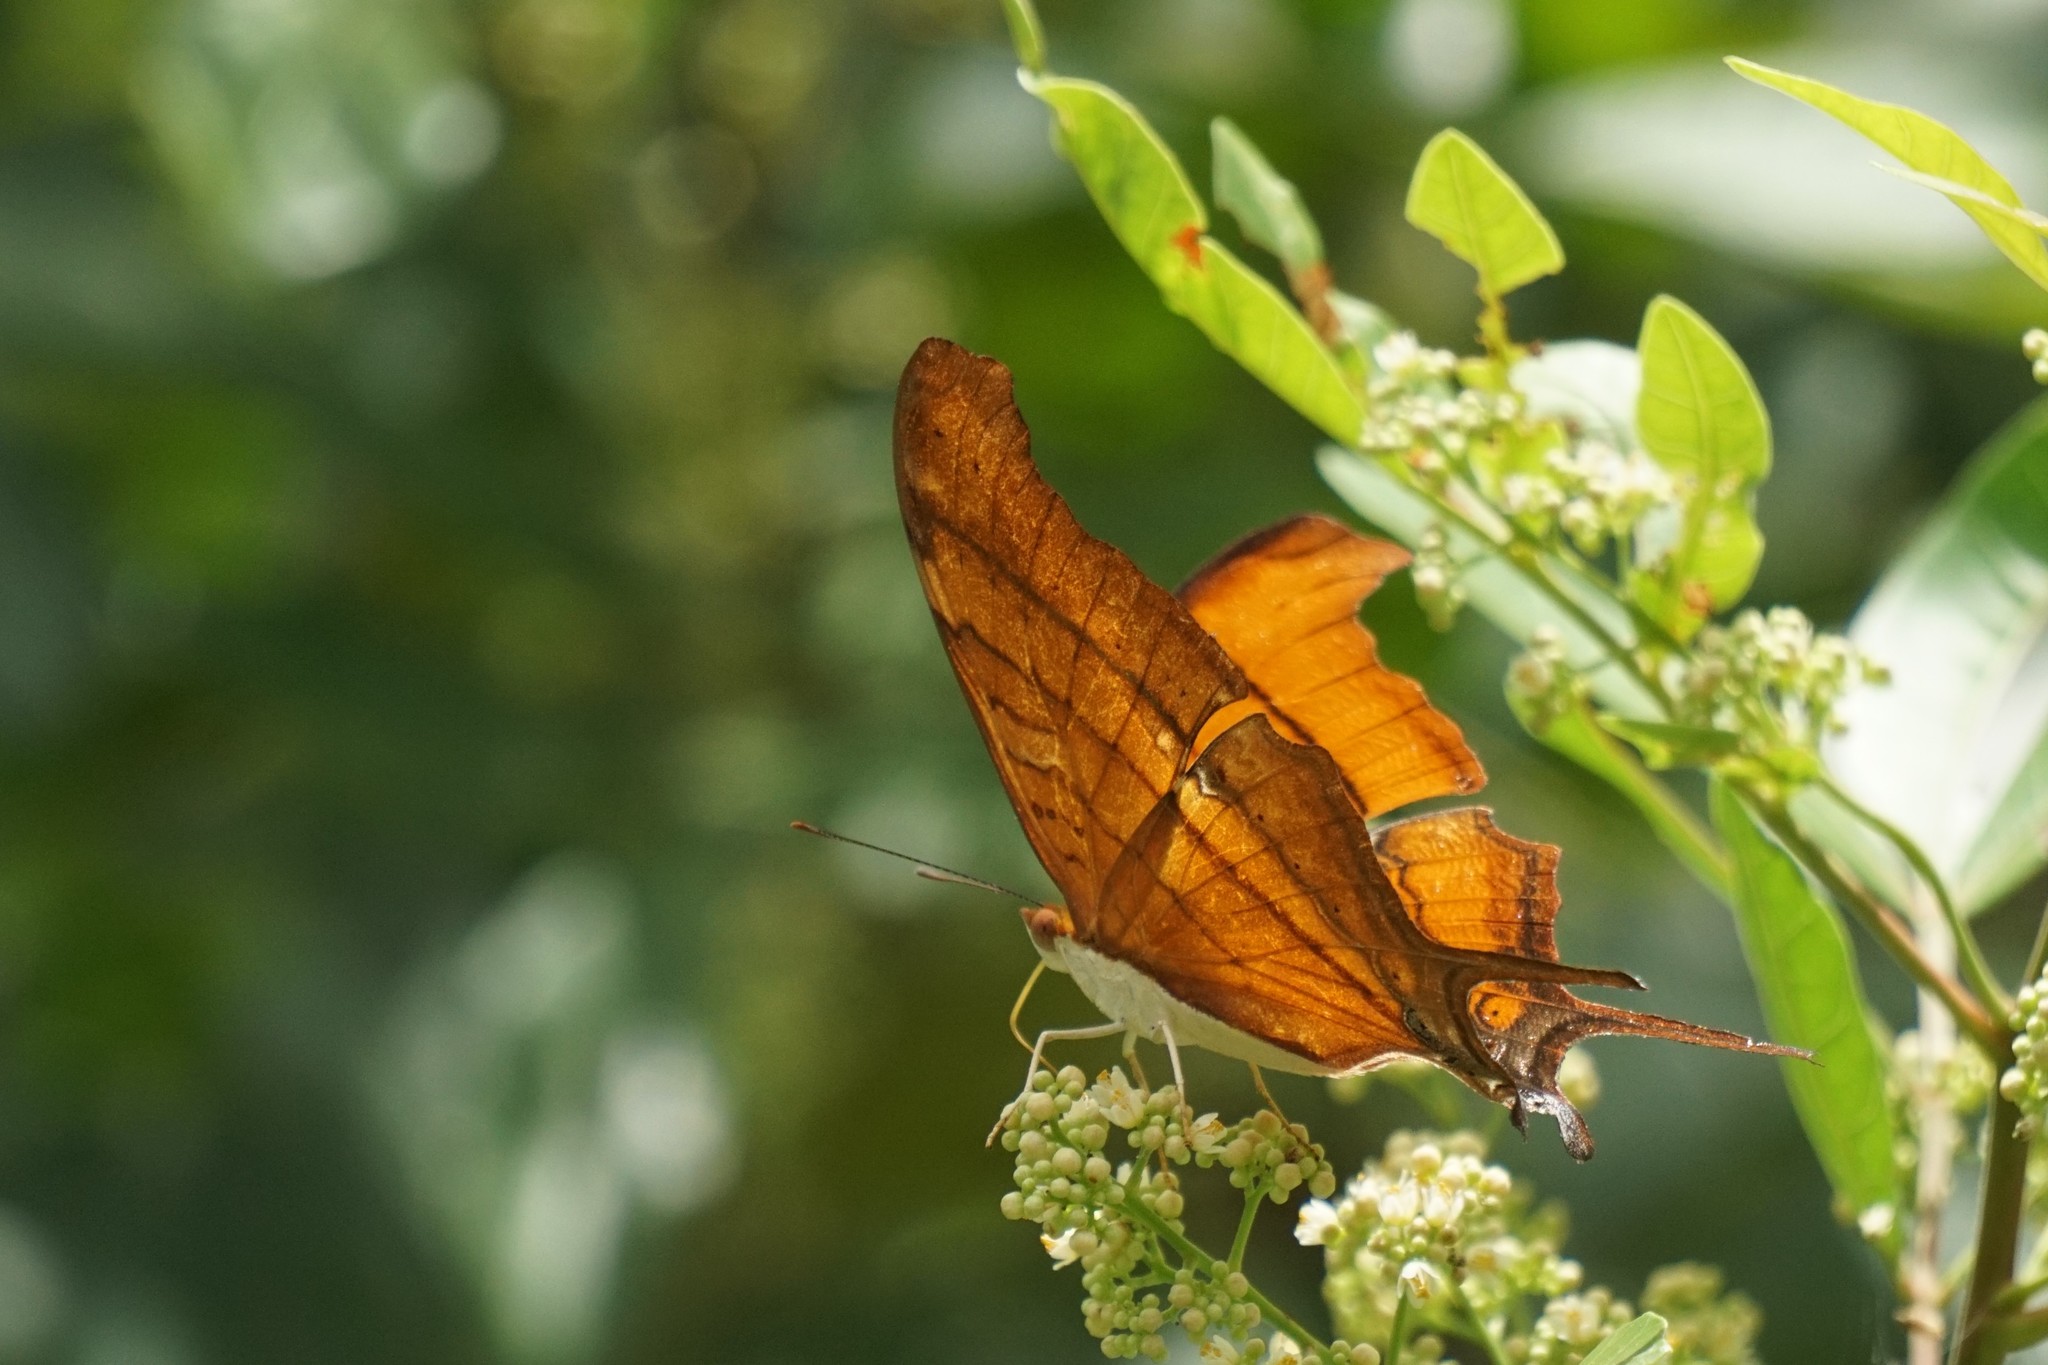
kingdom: Animalia
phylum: Arthropoda
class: Insecta
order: Lepidoptera
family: Nymphalidae
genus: Marpesia
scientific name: Marpesia petreus
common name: Red dagger wing
